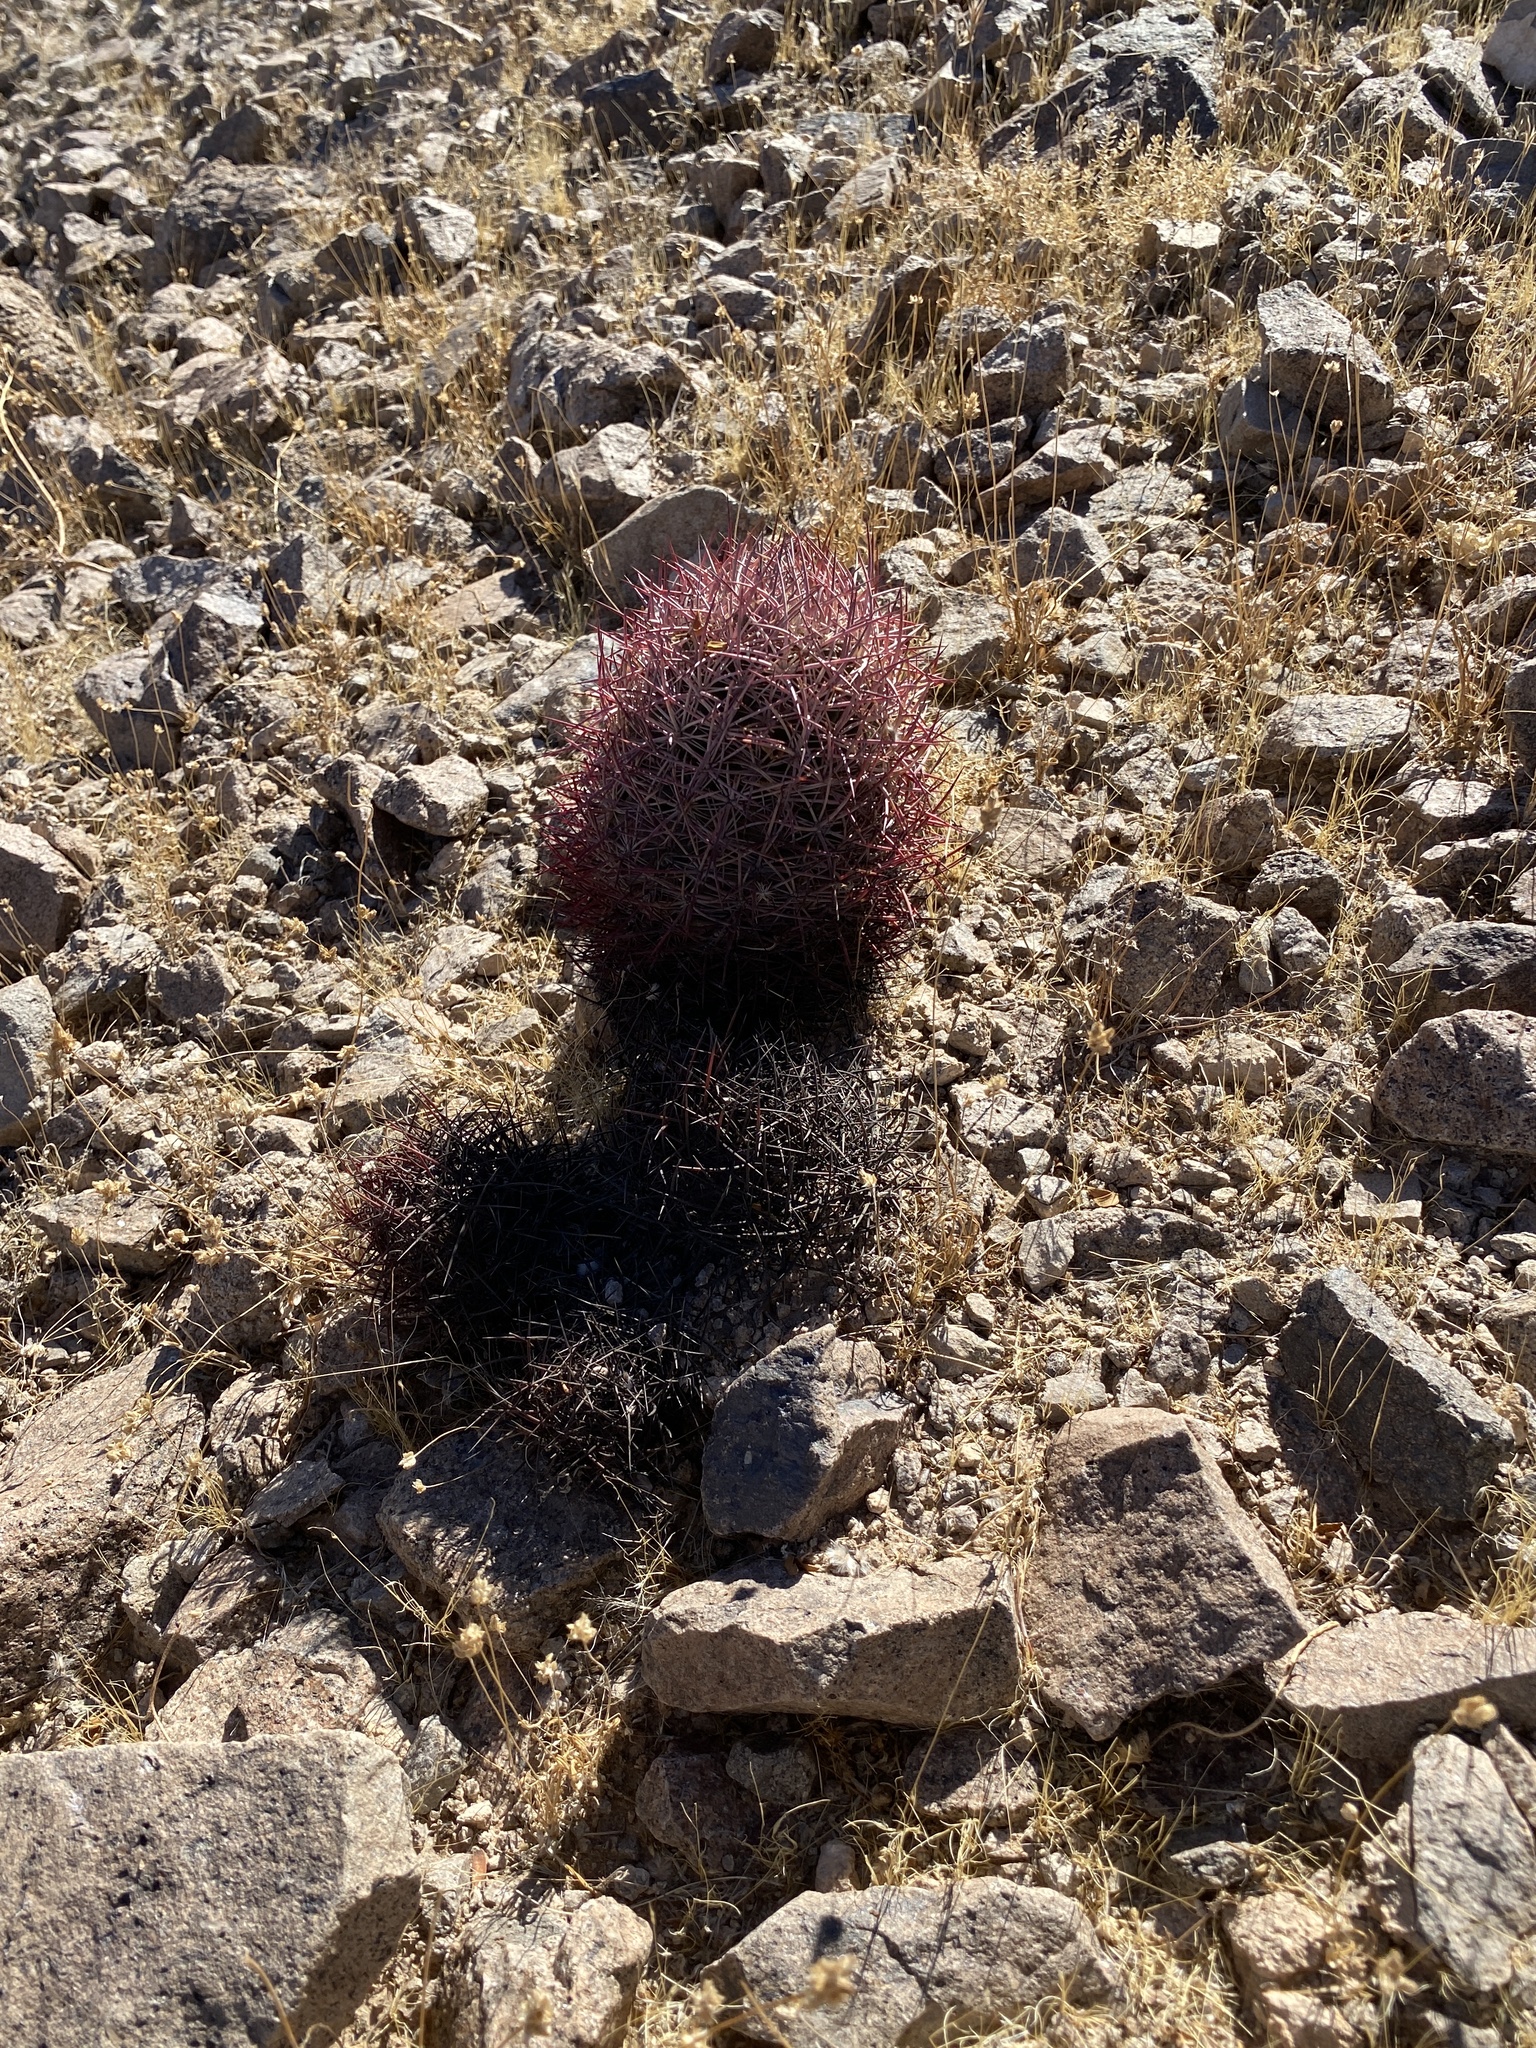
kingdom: Plantae
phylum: Tracheophyta
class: Magnoliopsida
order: Caryophyllales
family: Cactaceae
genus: Sclerocactus
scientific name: Sclerocactus johnsonii
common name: Eight-spine fishhook cactus
